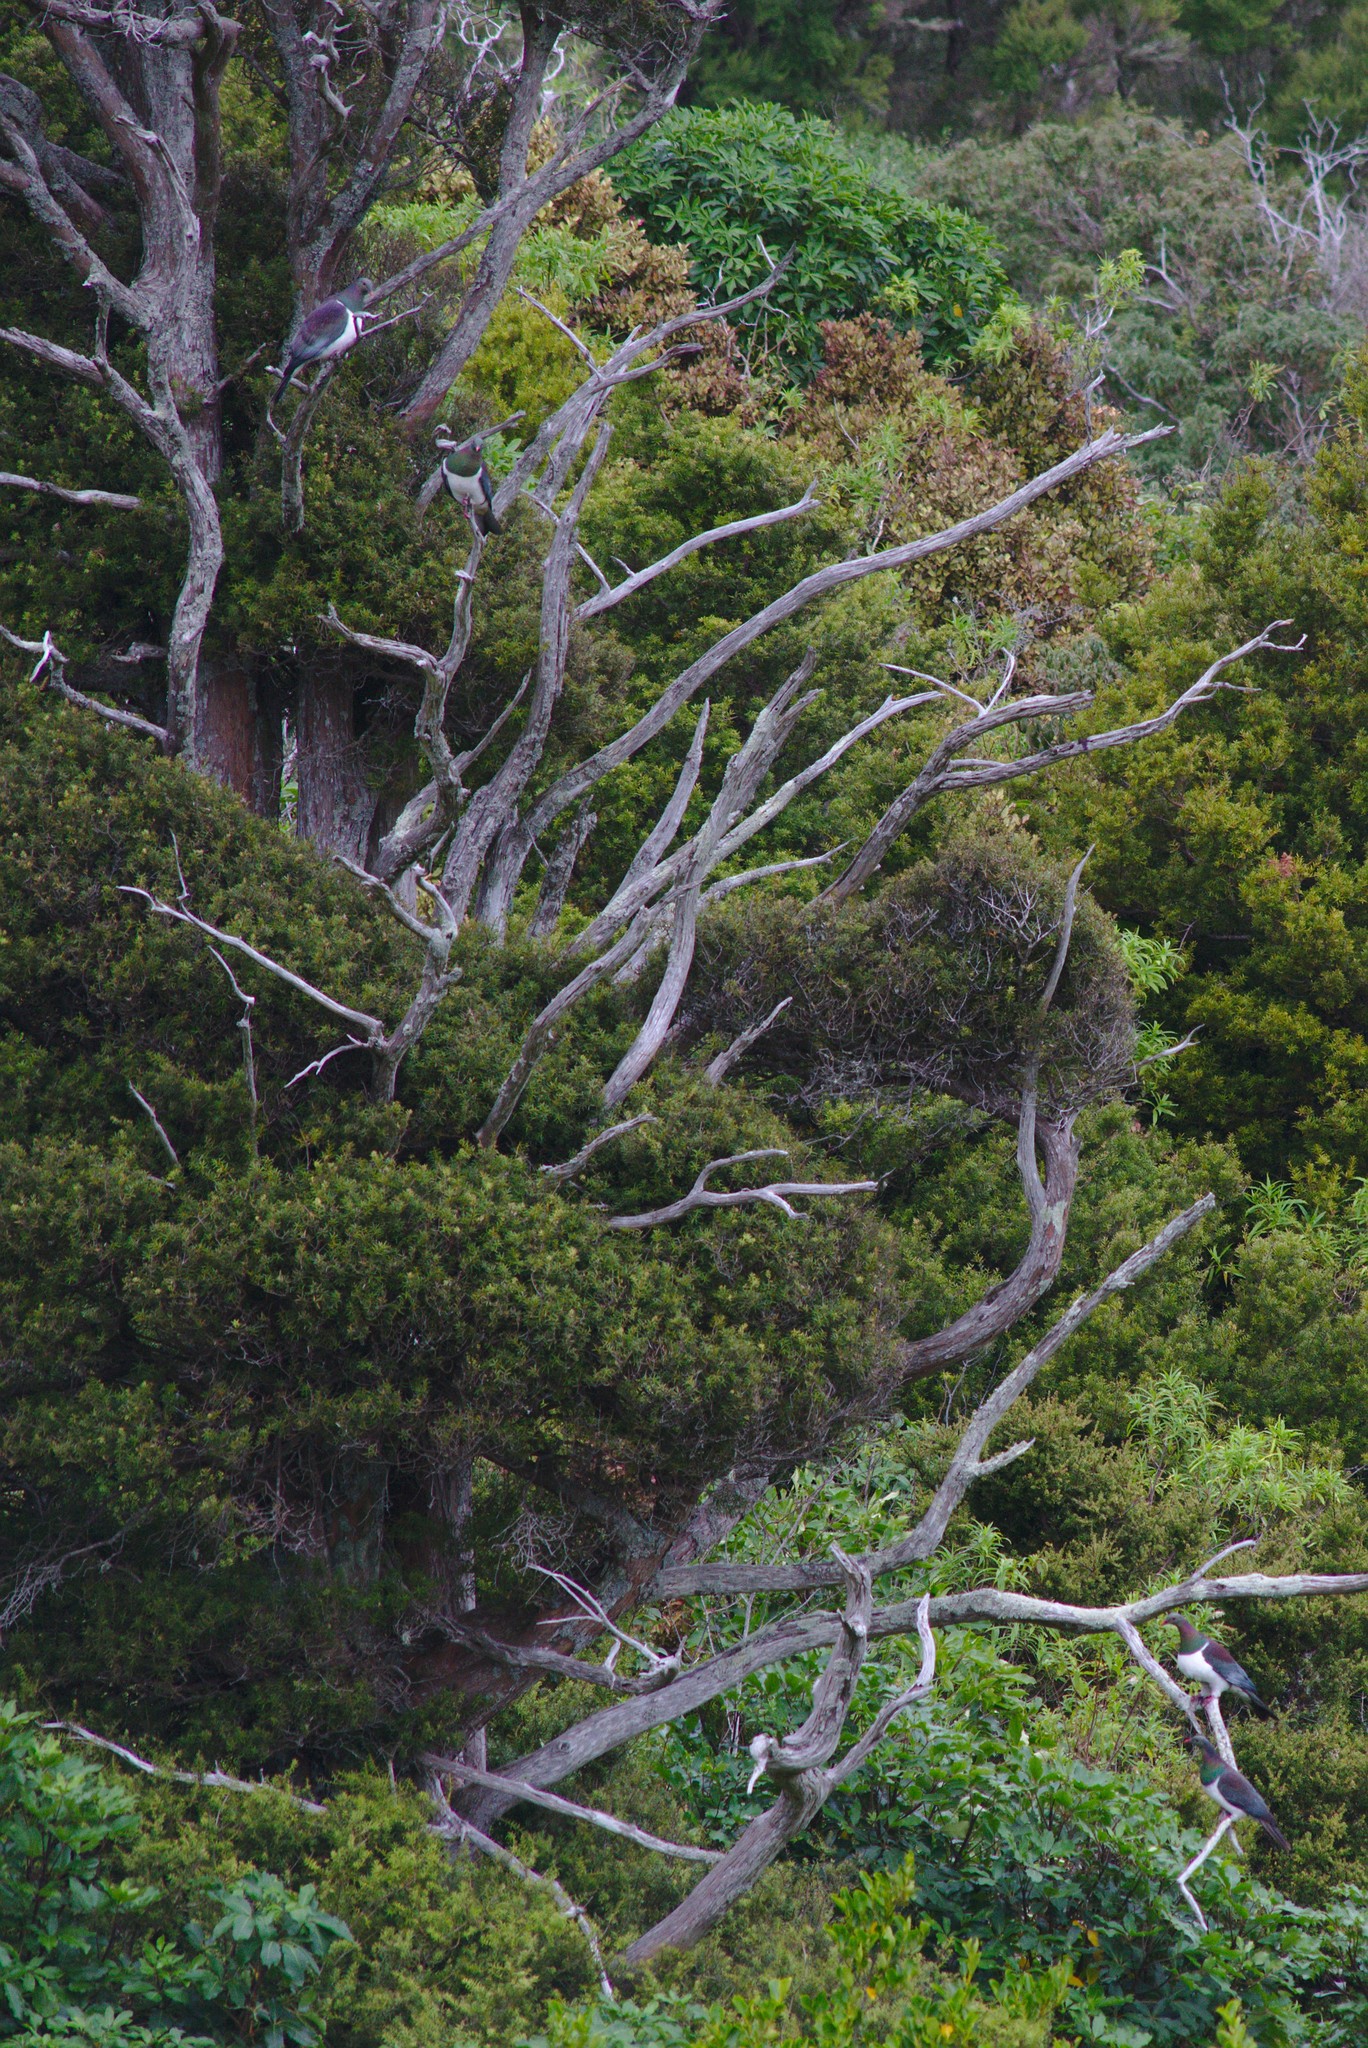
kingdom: Animalia
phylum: Chordata
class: Aves
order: Columbiformes
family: Columbidae
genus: Hemiphaga
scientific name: Hemiphaga novaeseelandiae
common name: New zealand pigeon
